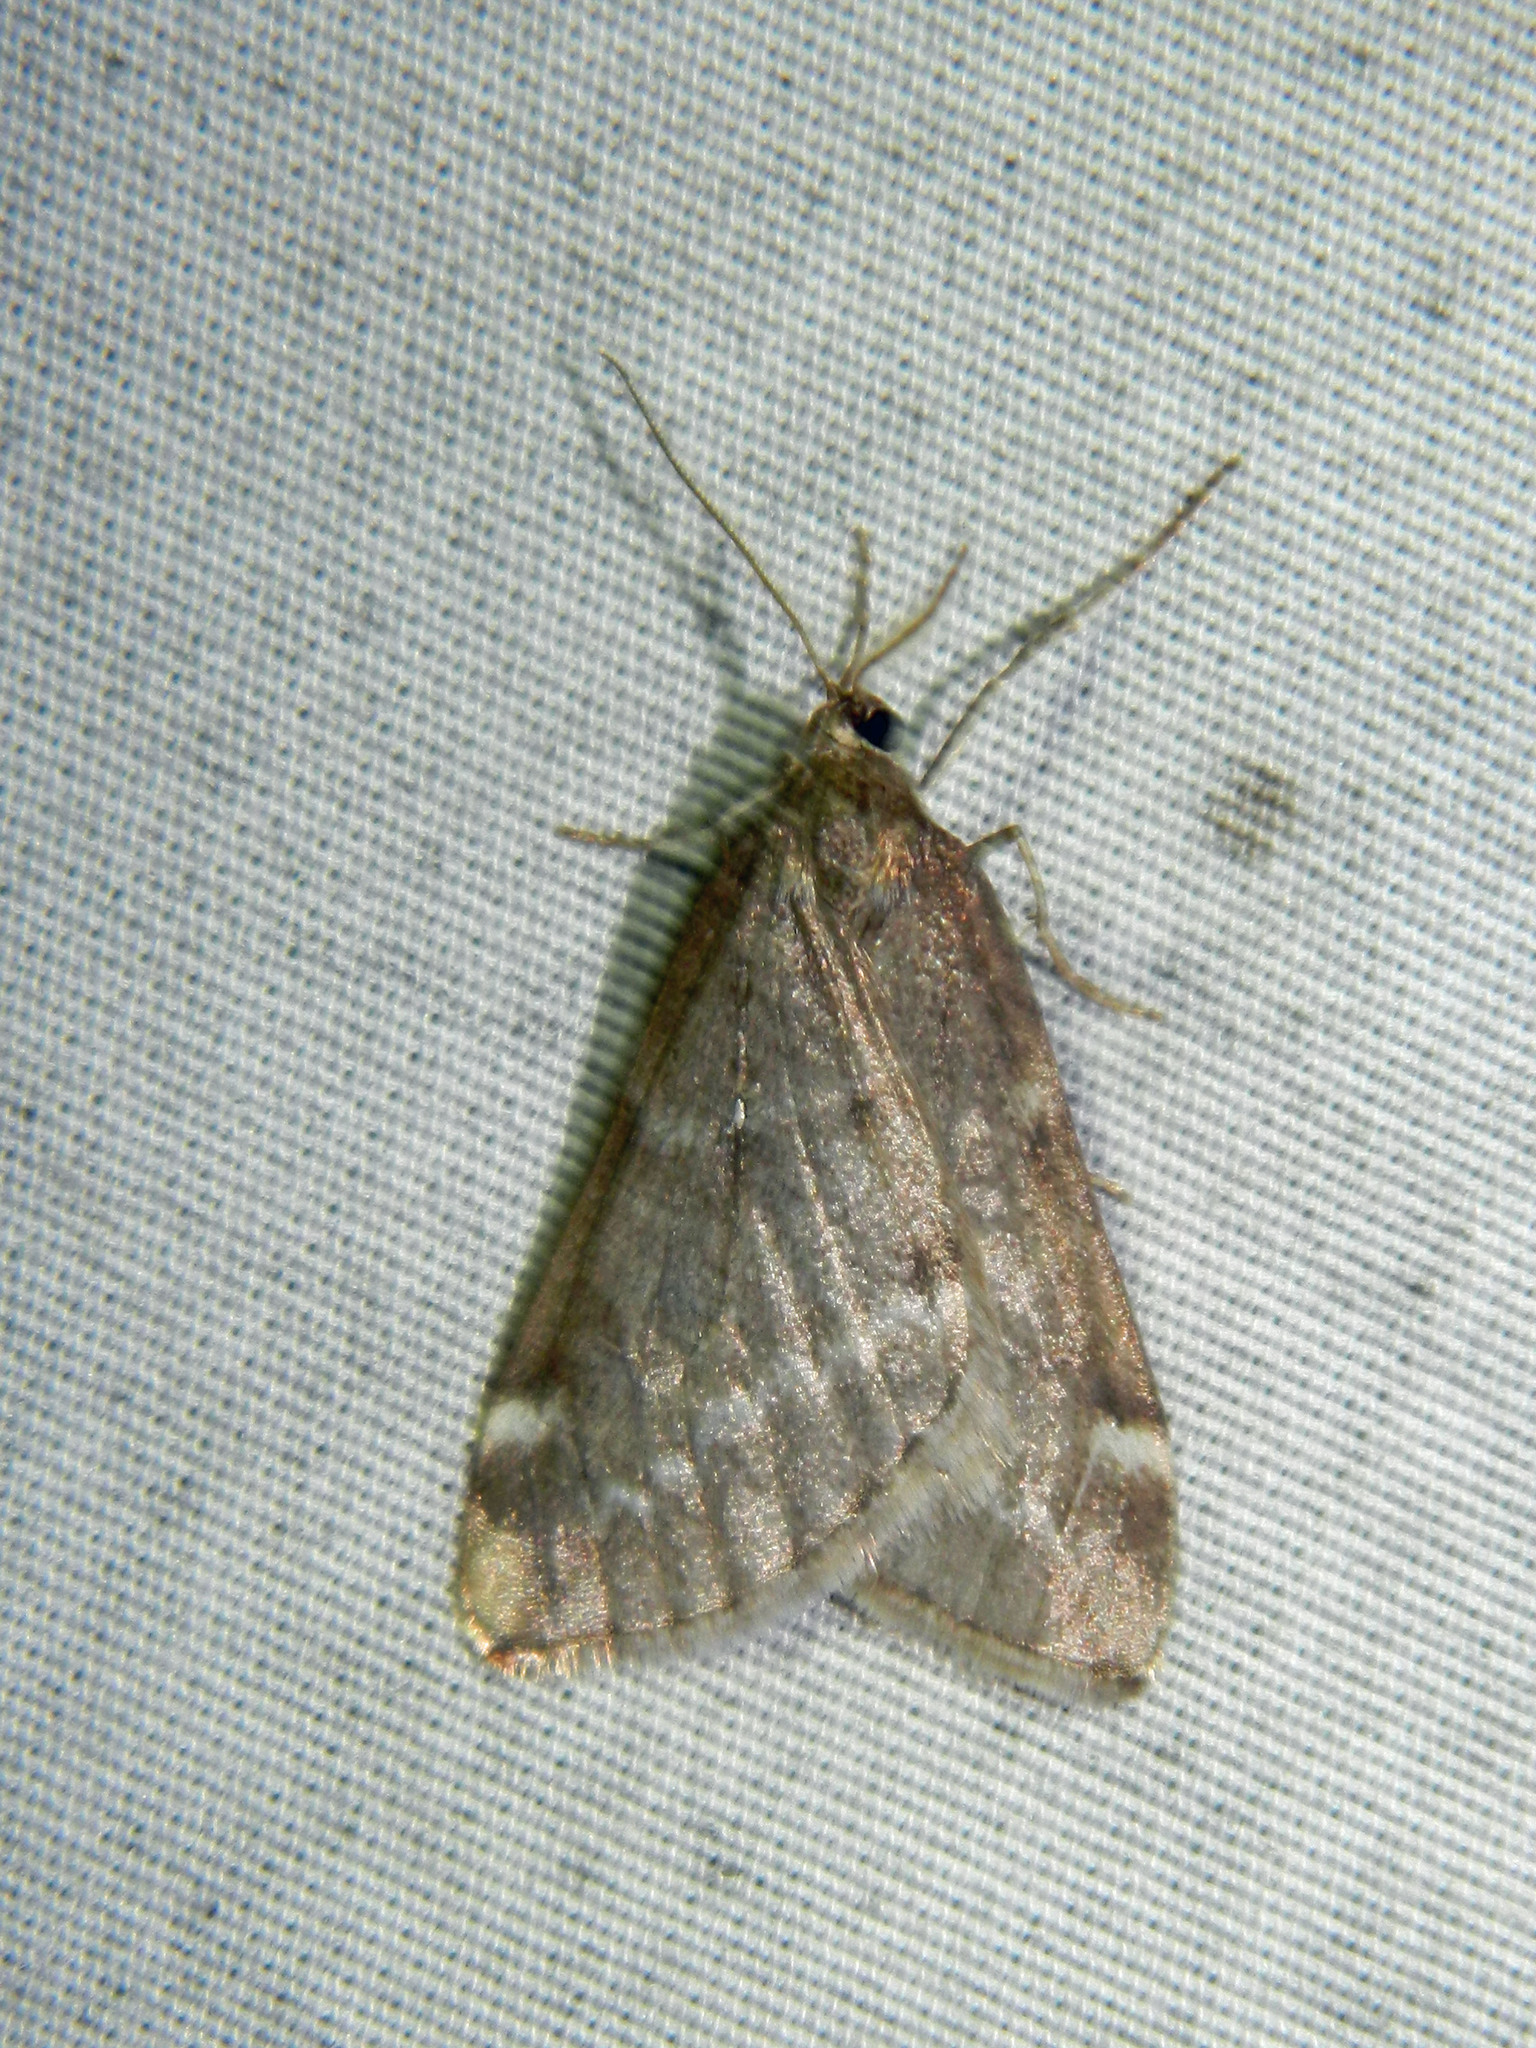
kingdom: Animalia
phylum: Arthropoda
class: Insecta
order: Lepidoptera
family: Geometridae
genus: Alsophila
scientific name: Alsophila pometaria
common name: Fall cankerworm
